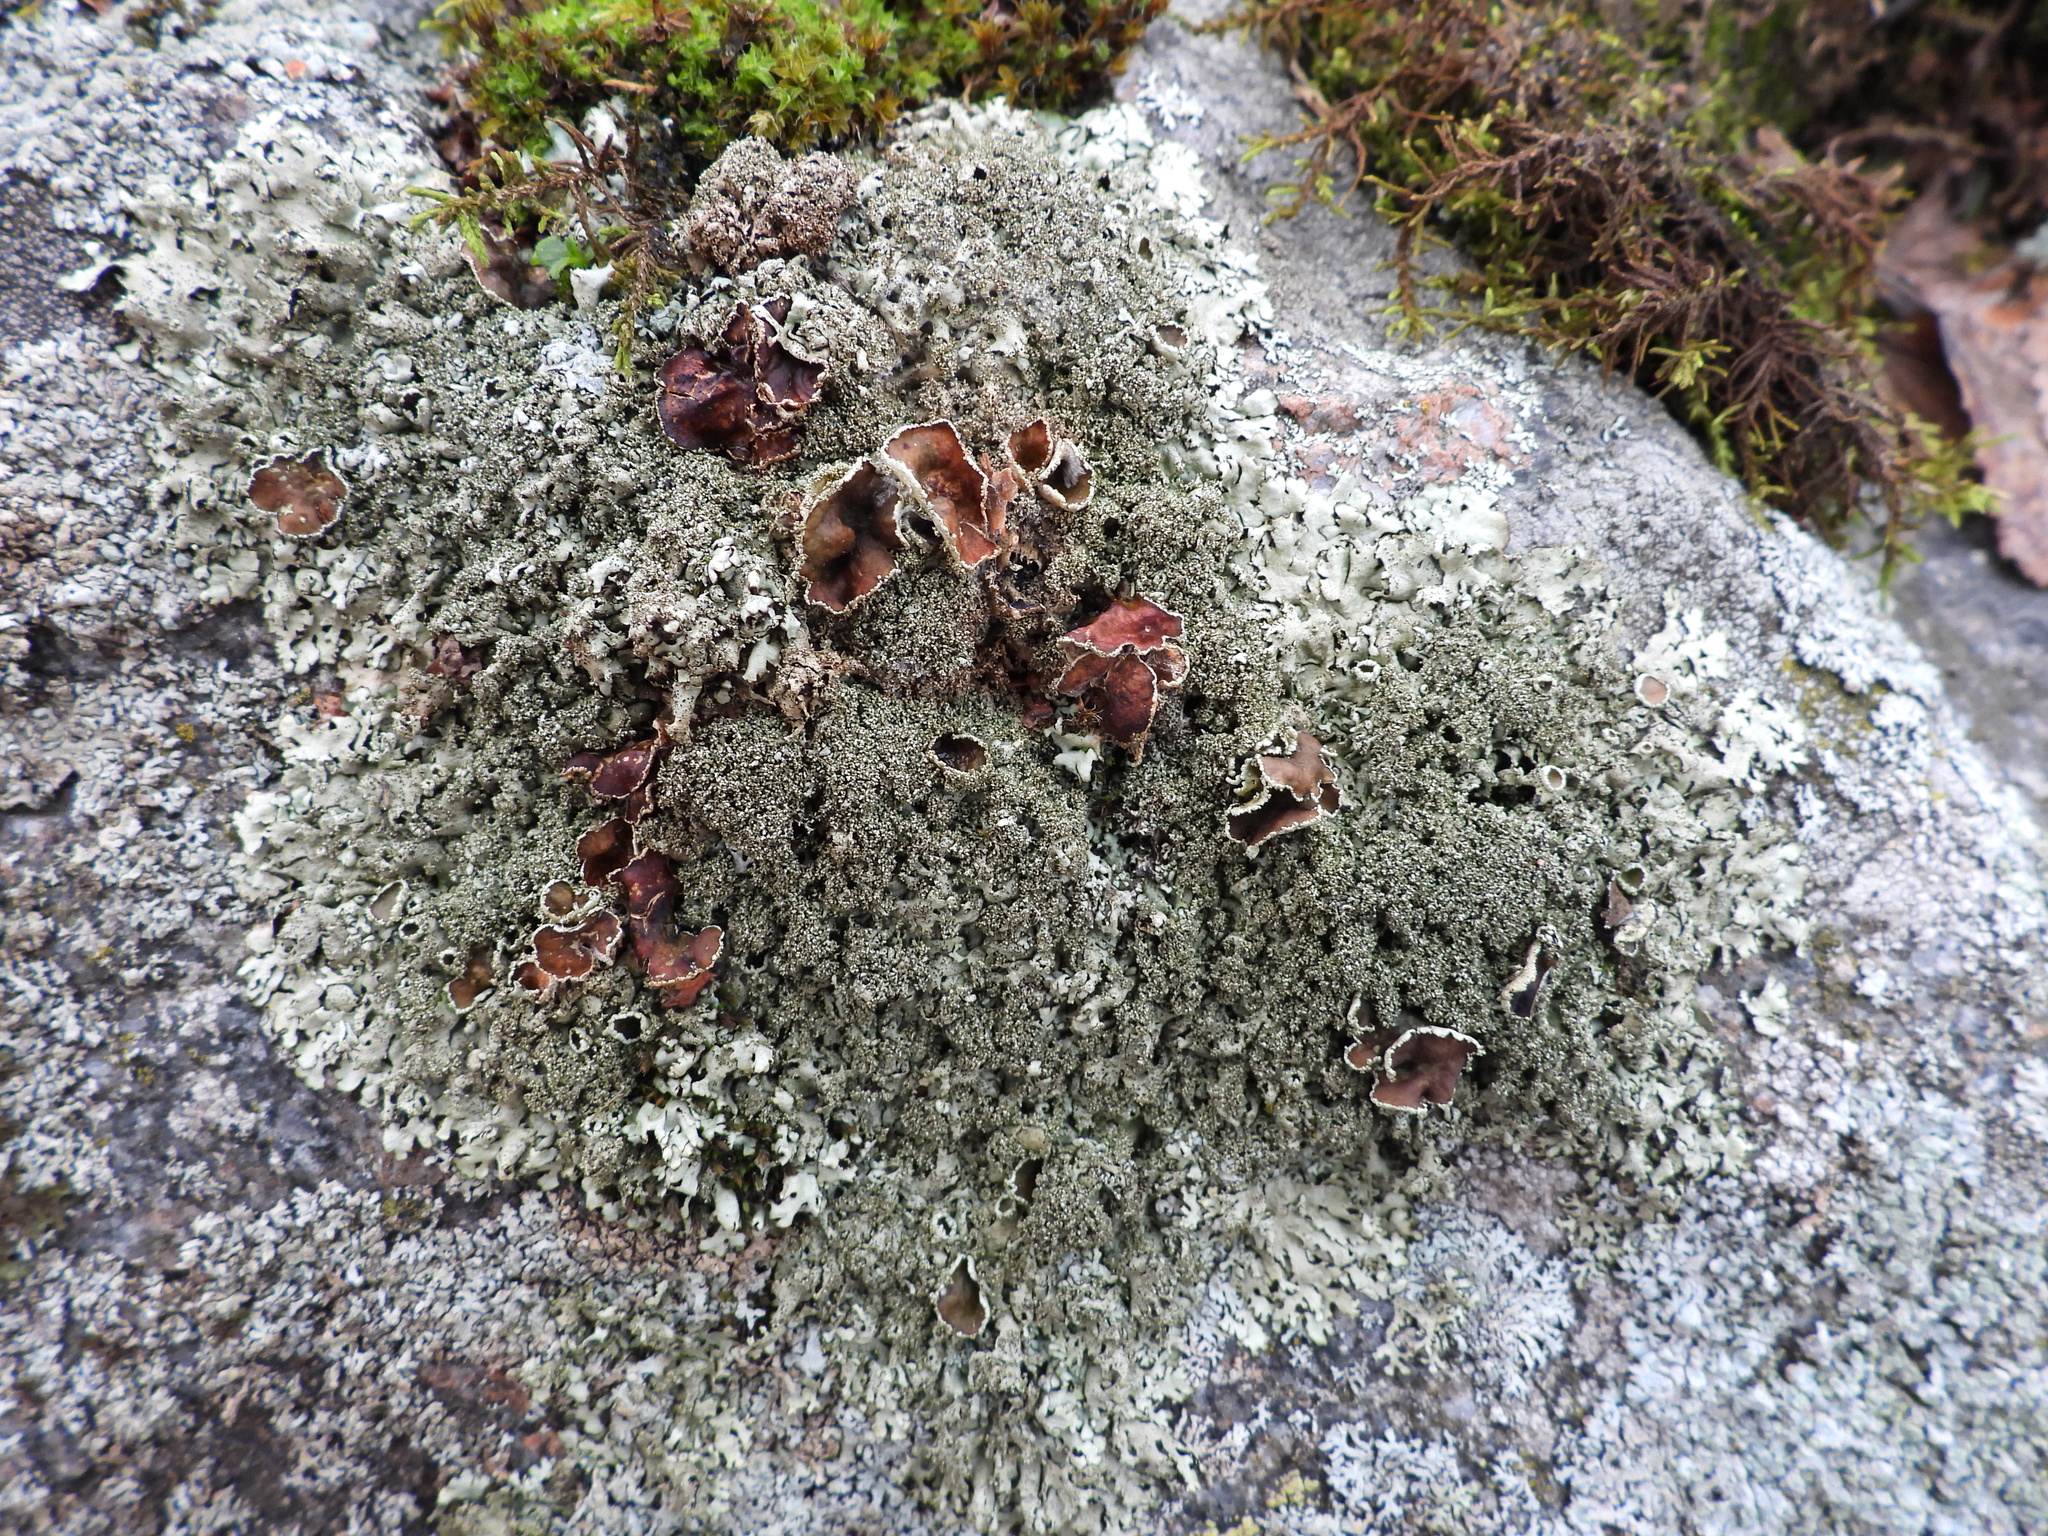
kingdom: Fungi
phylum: Ascomycota
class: Lecanoromycetes
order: Lecanorales
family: Parmeliaceae
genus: Xanthoparmelia
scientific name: Xanthoparmelia conspersa
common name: Peppered rock shield
